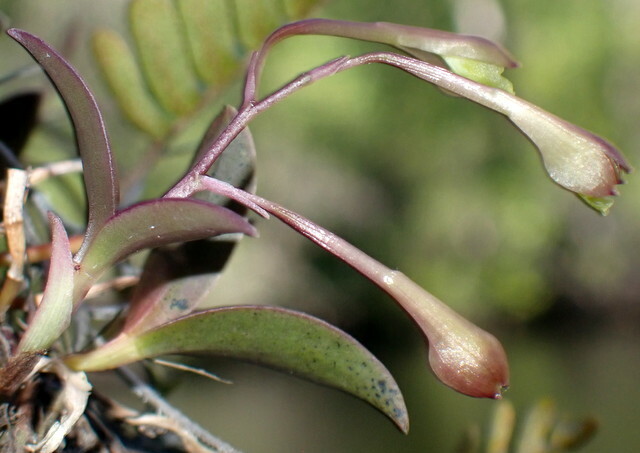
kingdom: Plantae
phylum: Tracheophyta
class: Liliopsida
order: Asparagales
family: Orchidaceae
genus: Epidendrum
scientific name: Epidendrum conopseum
